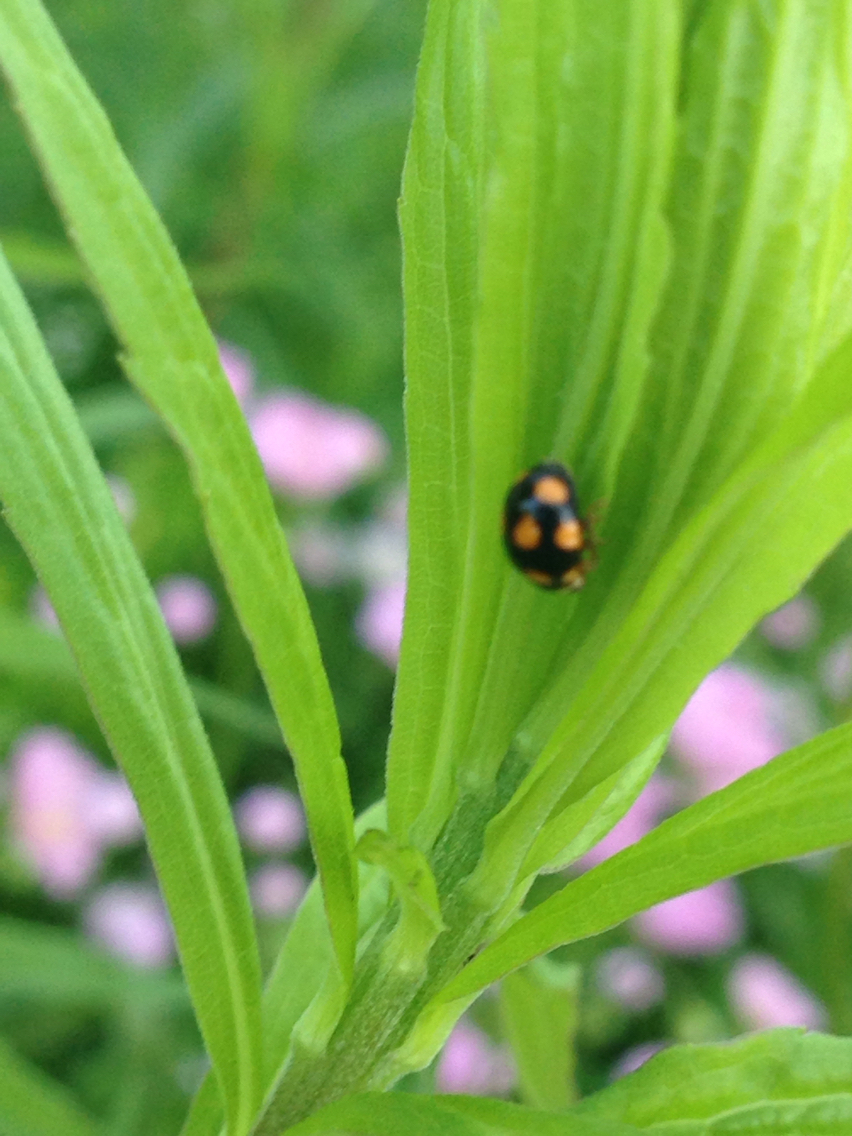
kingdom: Animalia
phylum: Arthropoda
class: Insecta
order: Coleoptera
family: Coccinellidae
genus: Brachiacantha
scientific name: Brachiacantha ursina
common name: Ursine spurleg lady beetle
